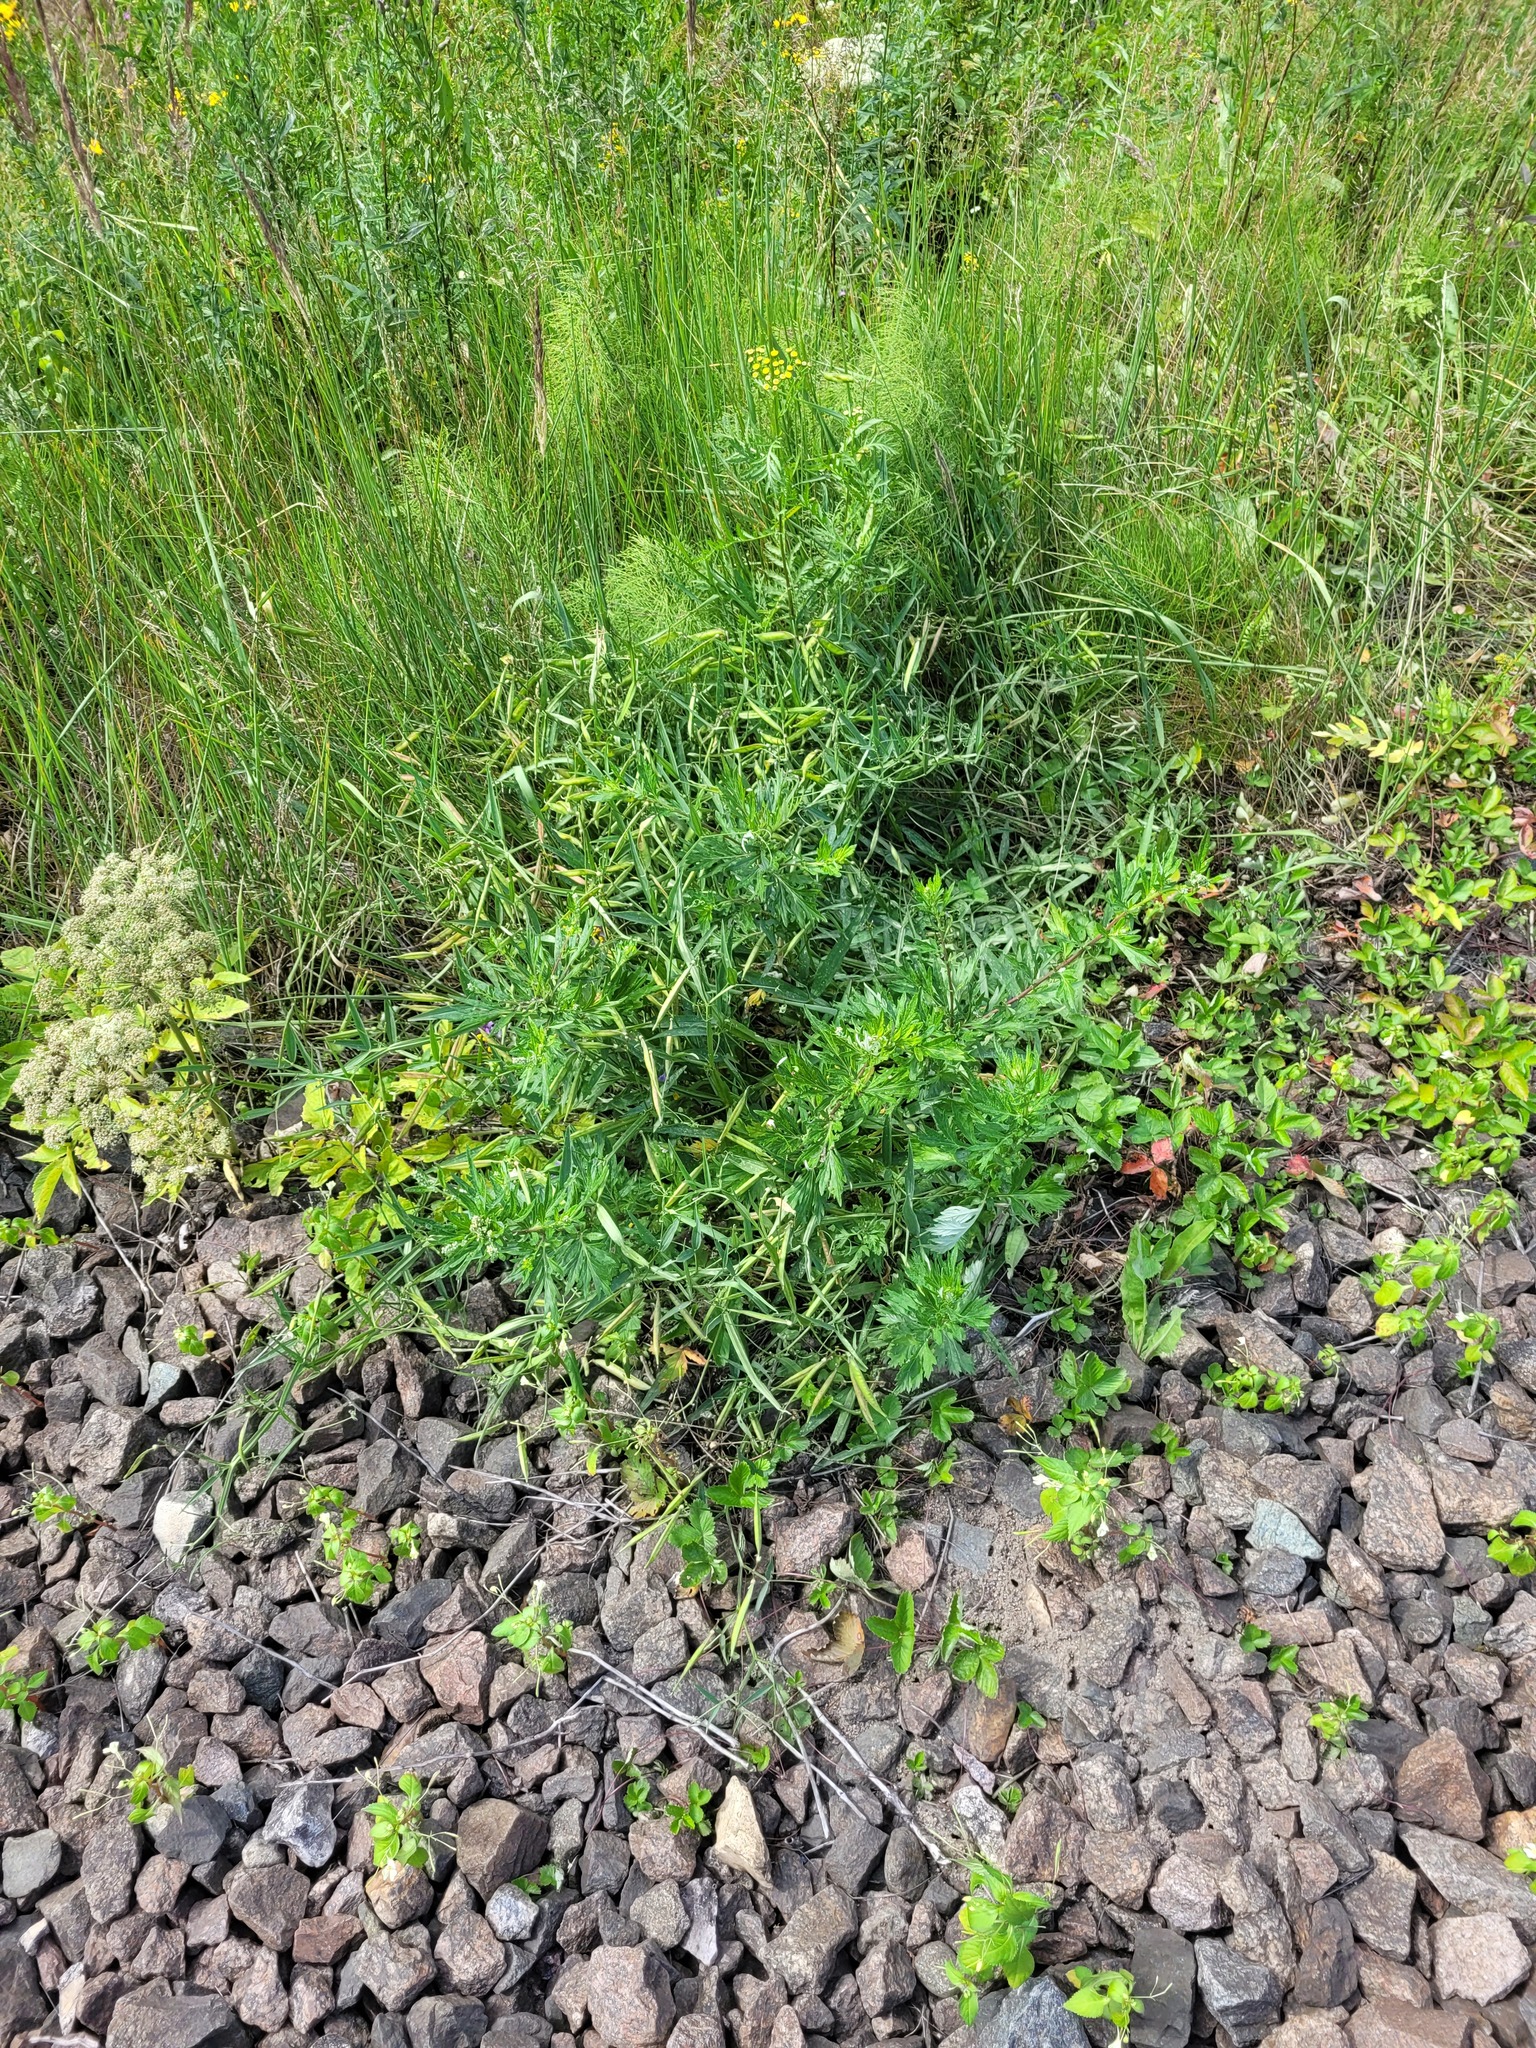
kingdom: Plantae
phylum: Tracheophyta
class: Magnoliopsida
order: Fabales
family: Fabaceae
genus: Lathyrus
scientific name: Lathyrus sylvestris
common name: Flat pea
